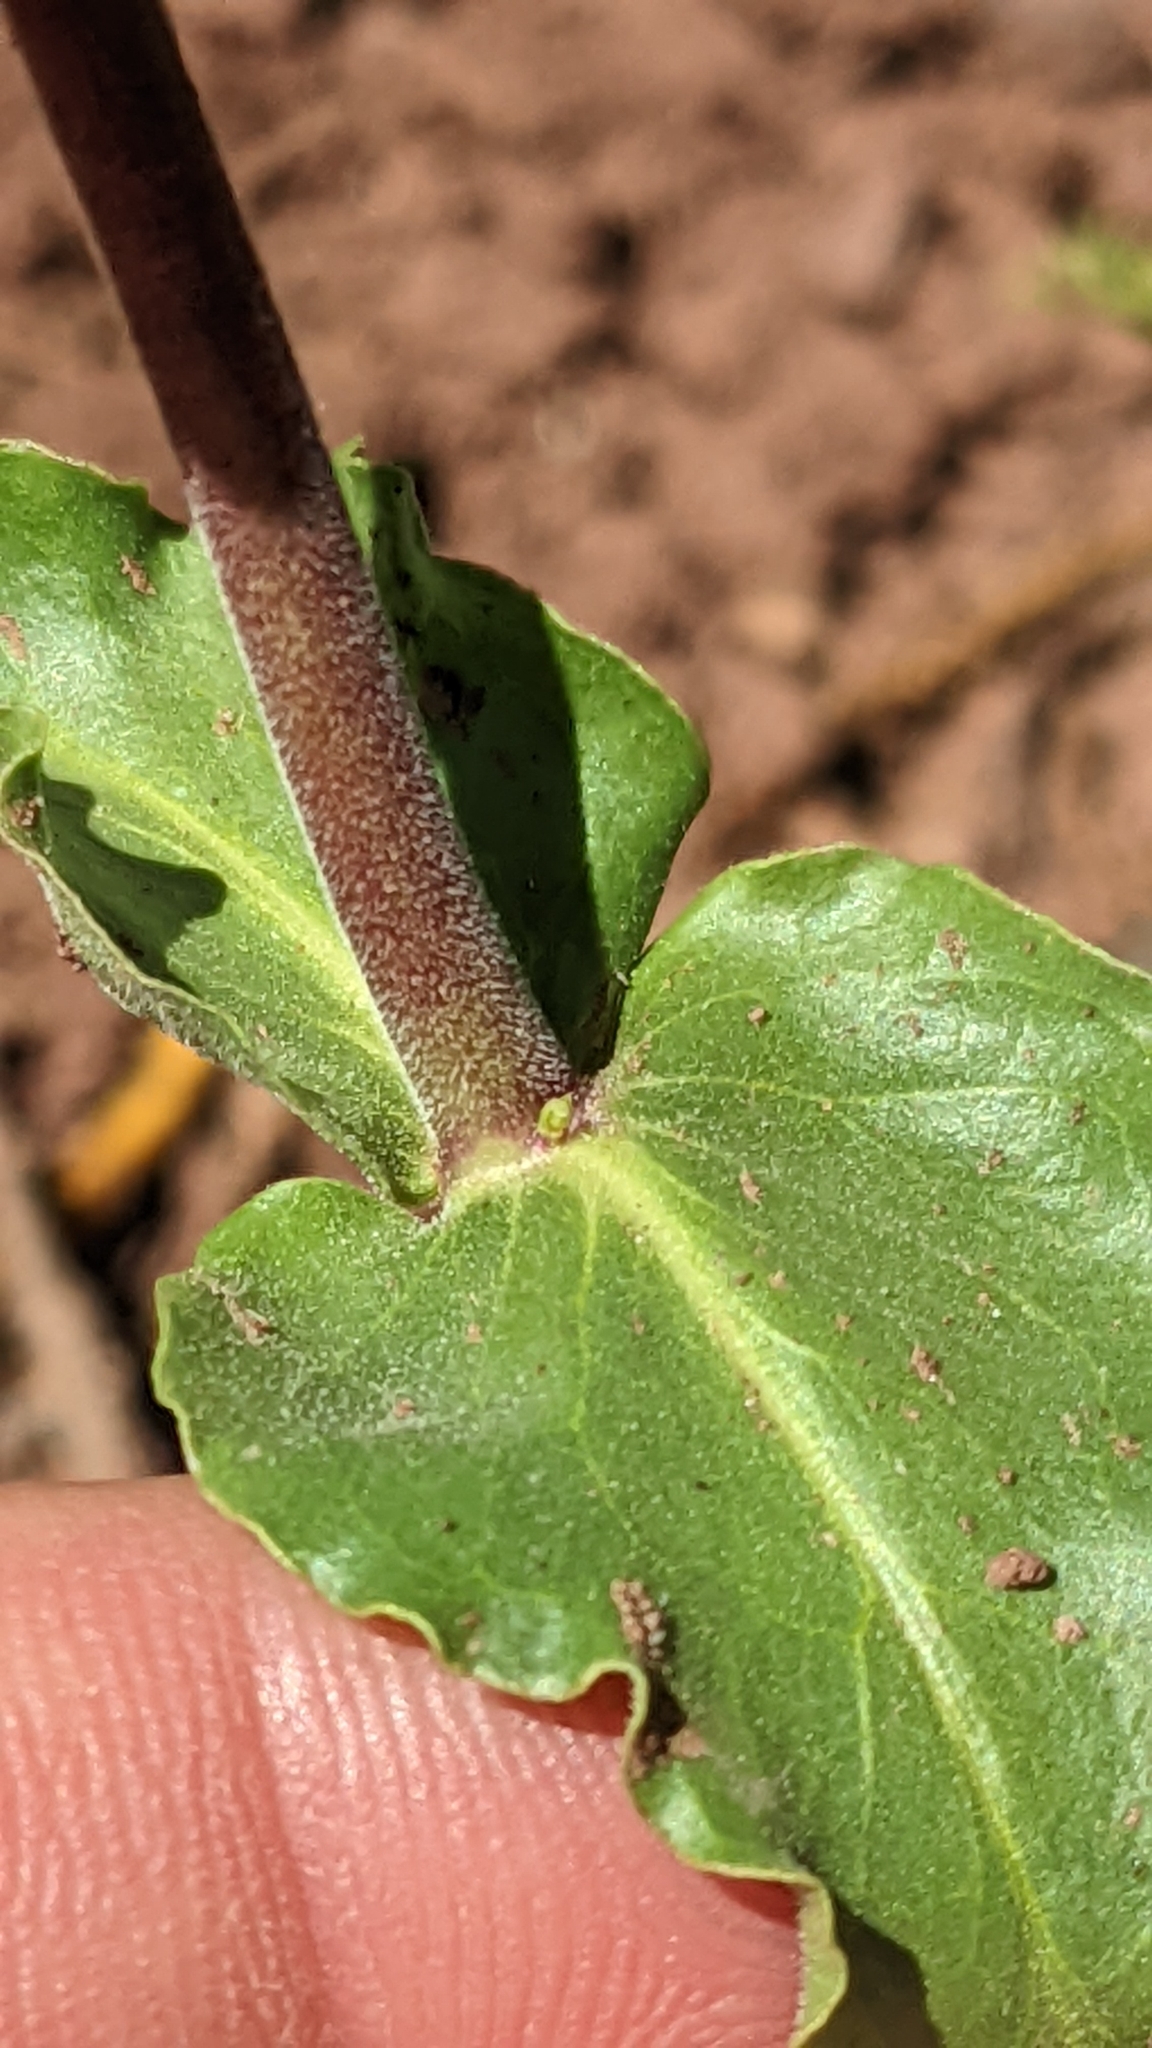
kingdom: Plantae
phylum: Tracheophyta
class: Magnoliopsida
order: Lamiales
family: Plantaginaceae
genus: Penstemon
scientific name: Penstemon eatonii
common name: Eaton's penstemon
